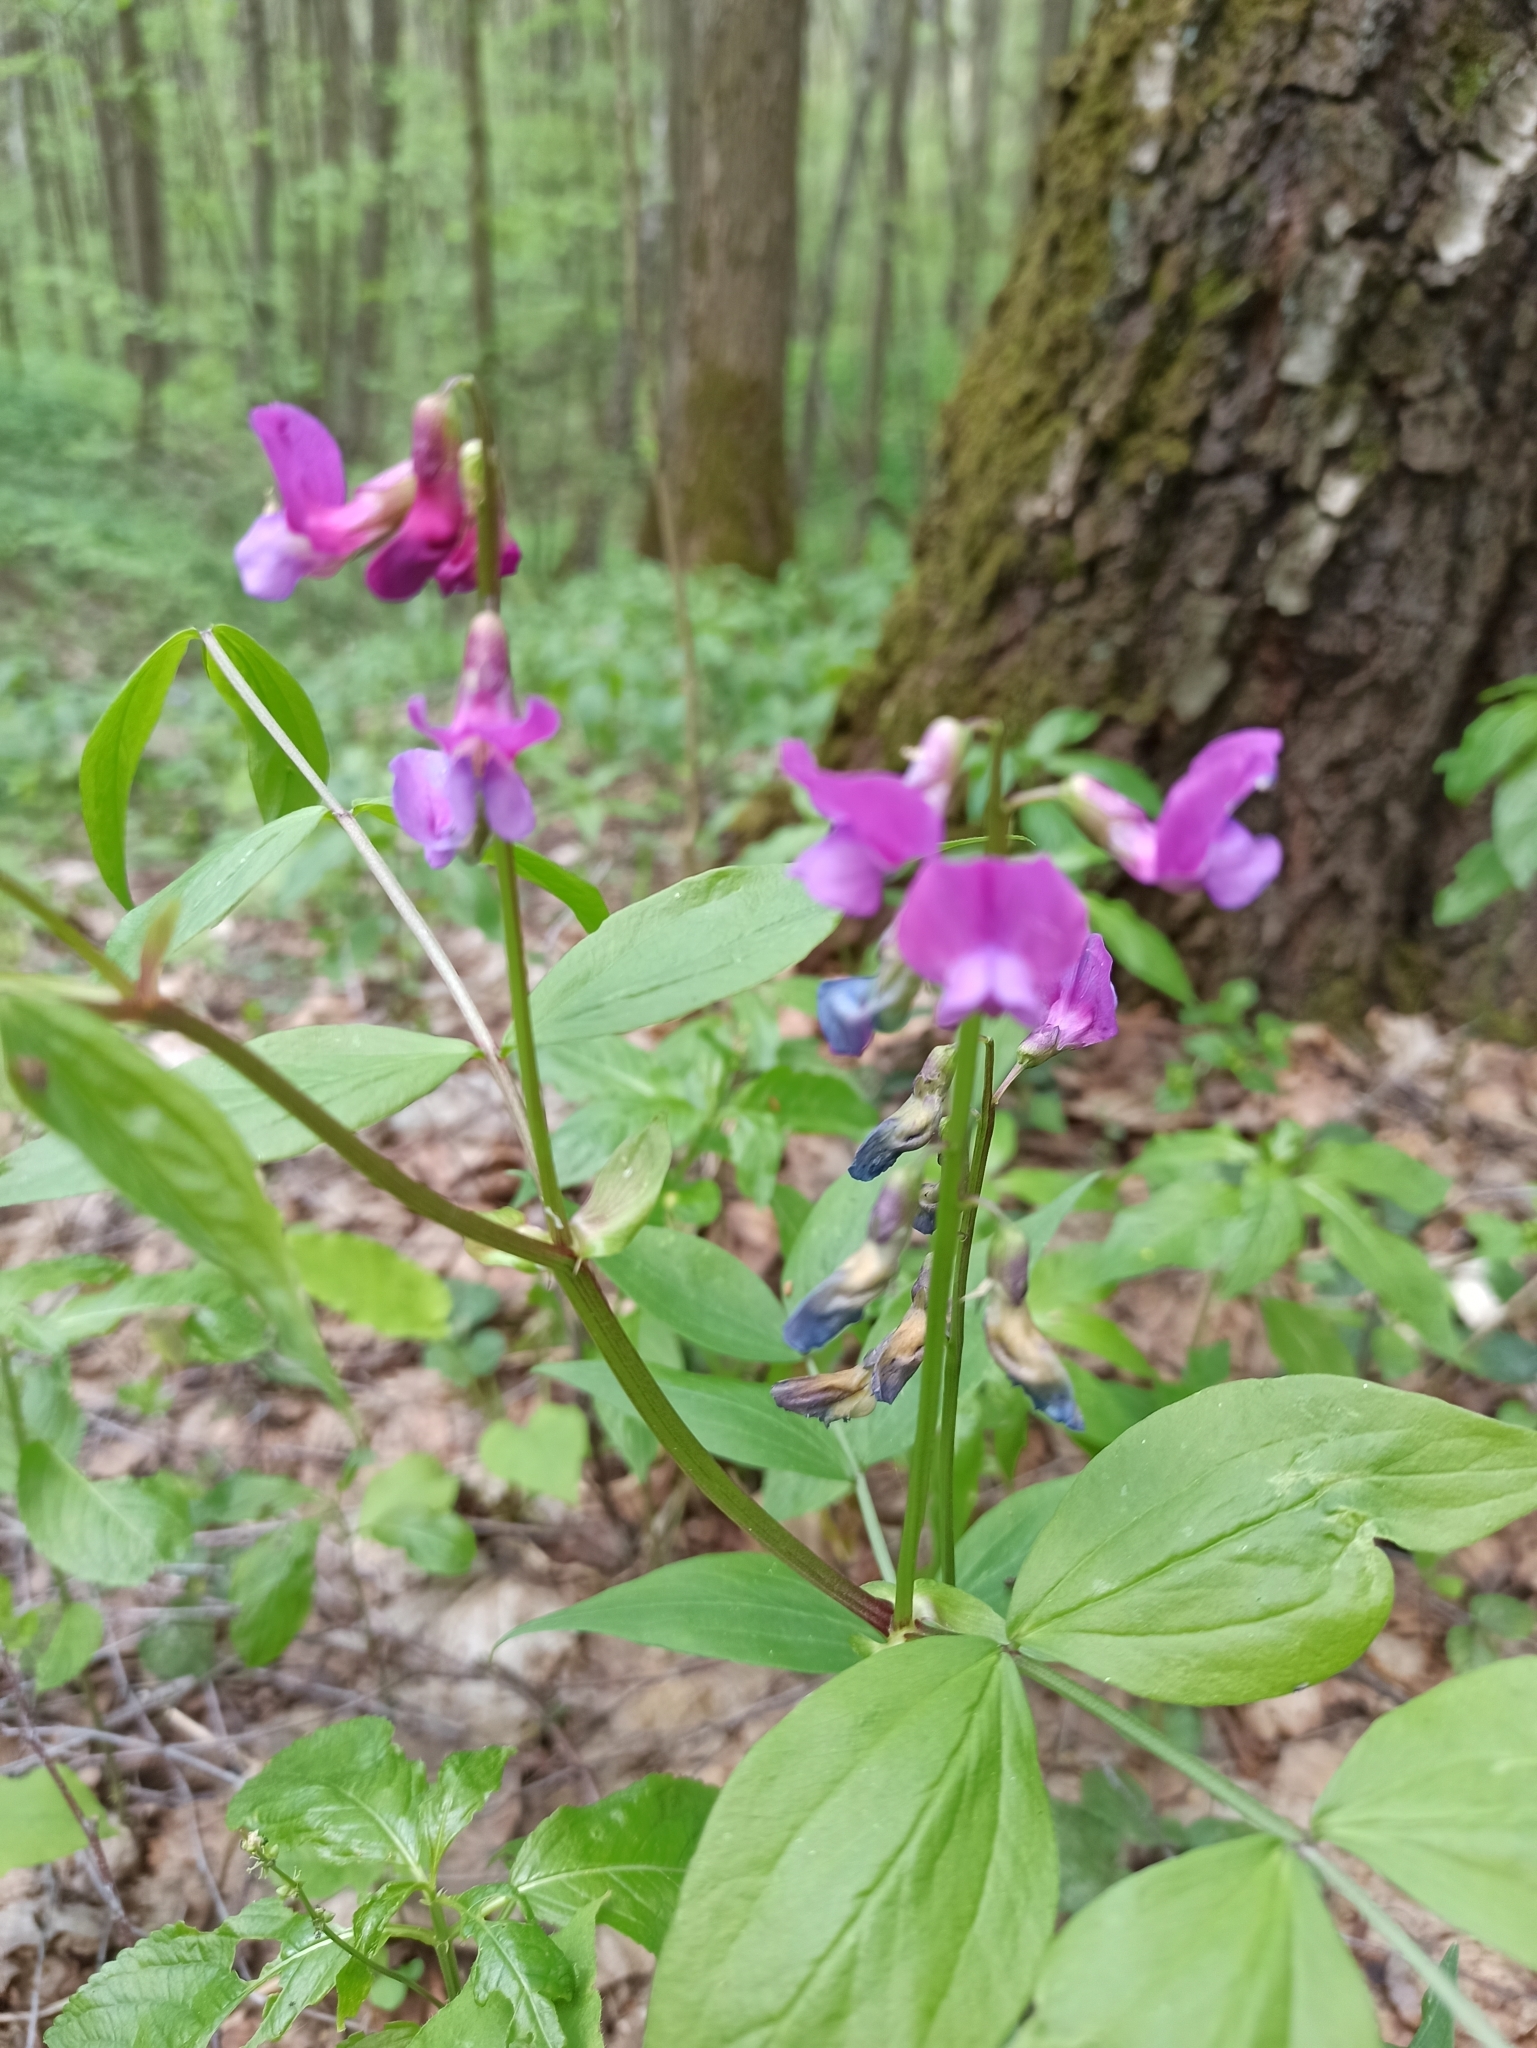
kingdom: Plantae
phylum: Tracheophyta
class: Magnoliopsida
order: Fabales
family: Fabaceae
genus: Lathyrus
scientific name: Lathyrus vernus
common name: Spring pea
